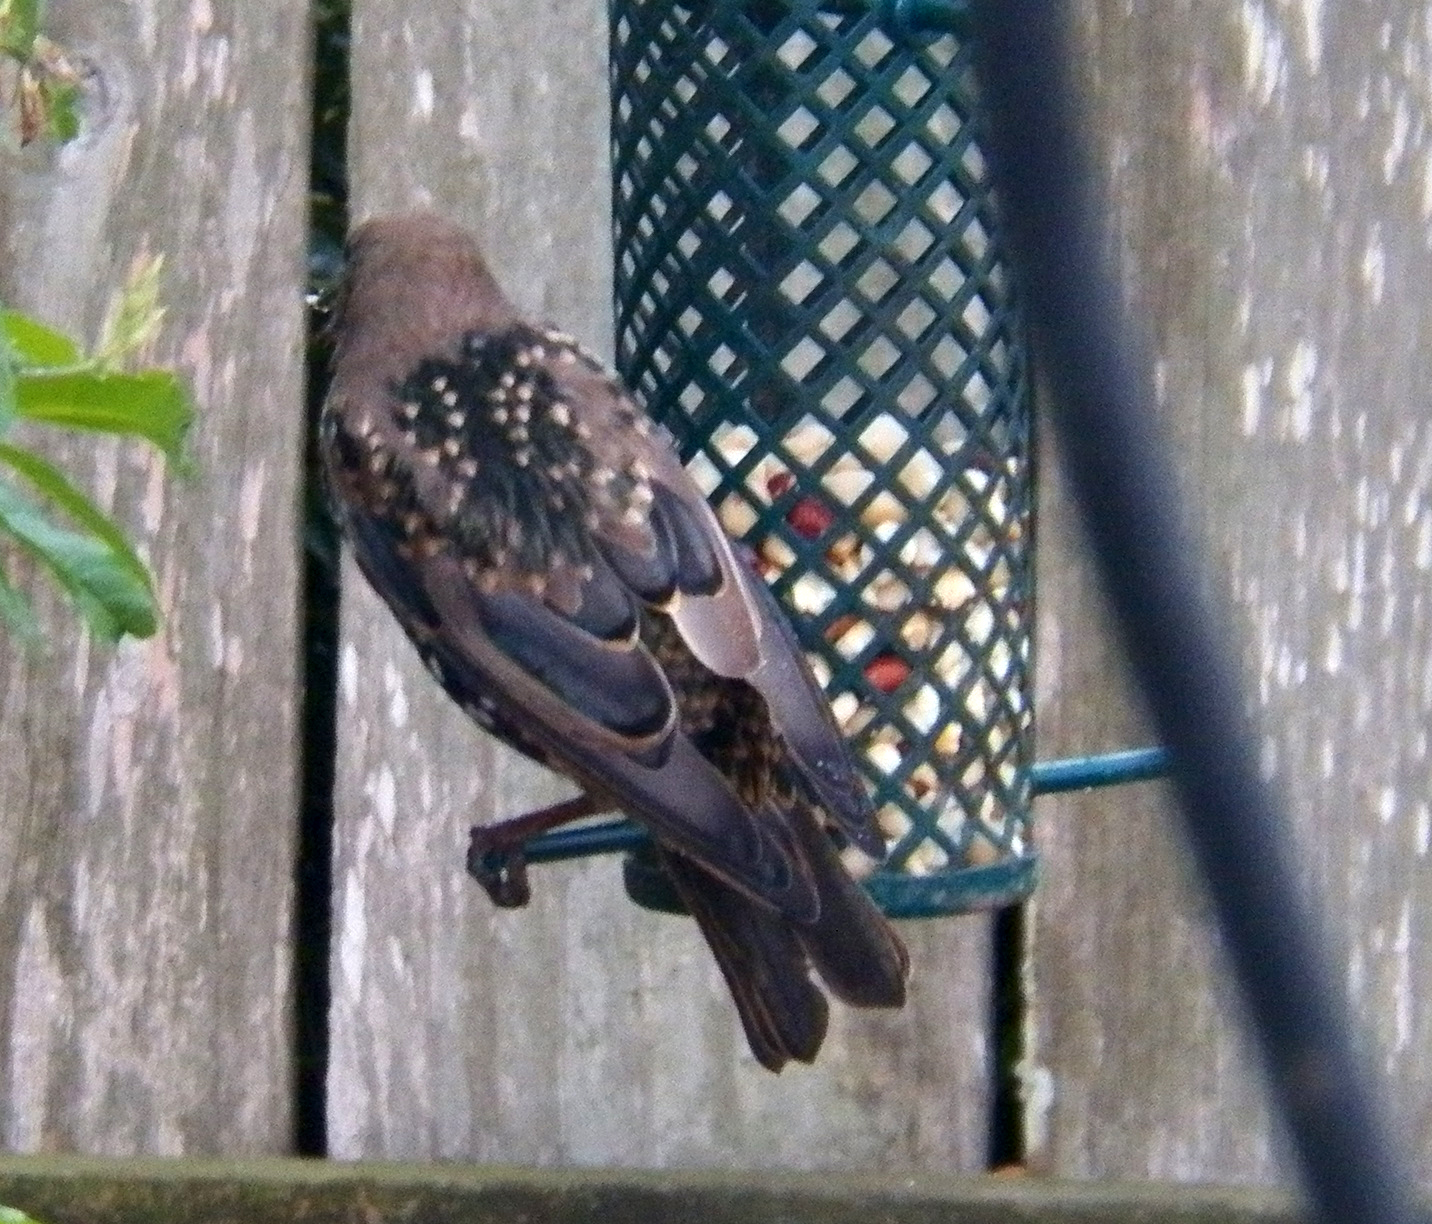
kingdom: Animalia
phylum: Chordata
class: Aves
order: Passeriformes
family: Sturnidae
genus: Sturnus
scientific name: Sturnus vulgaris
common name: Common starling
